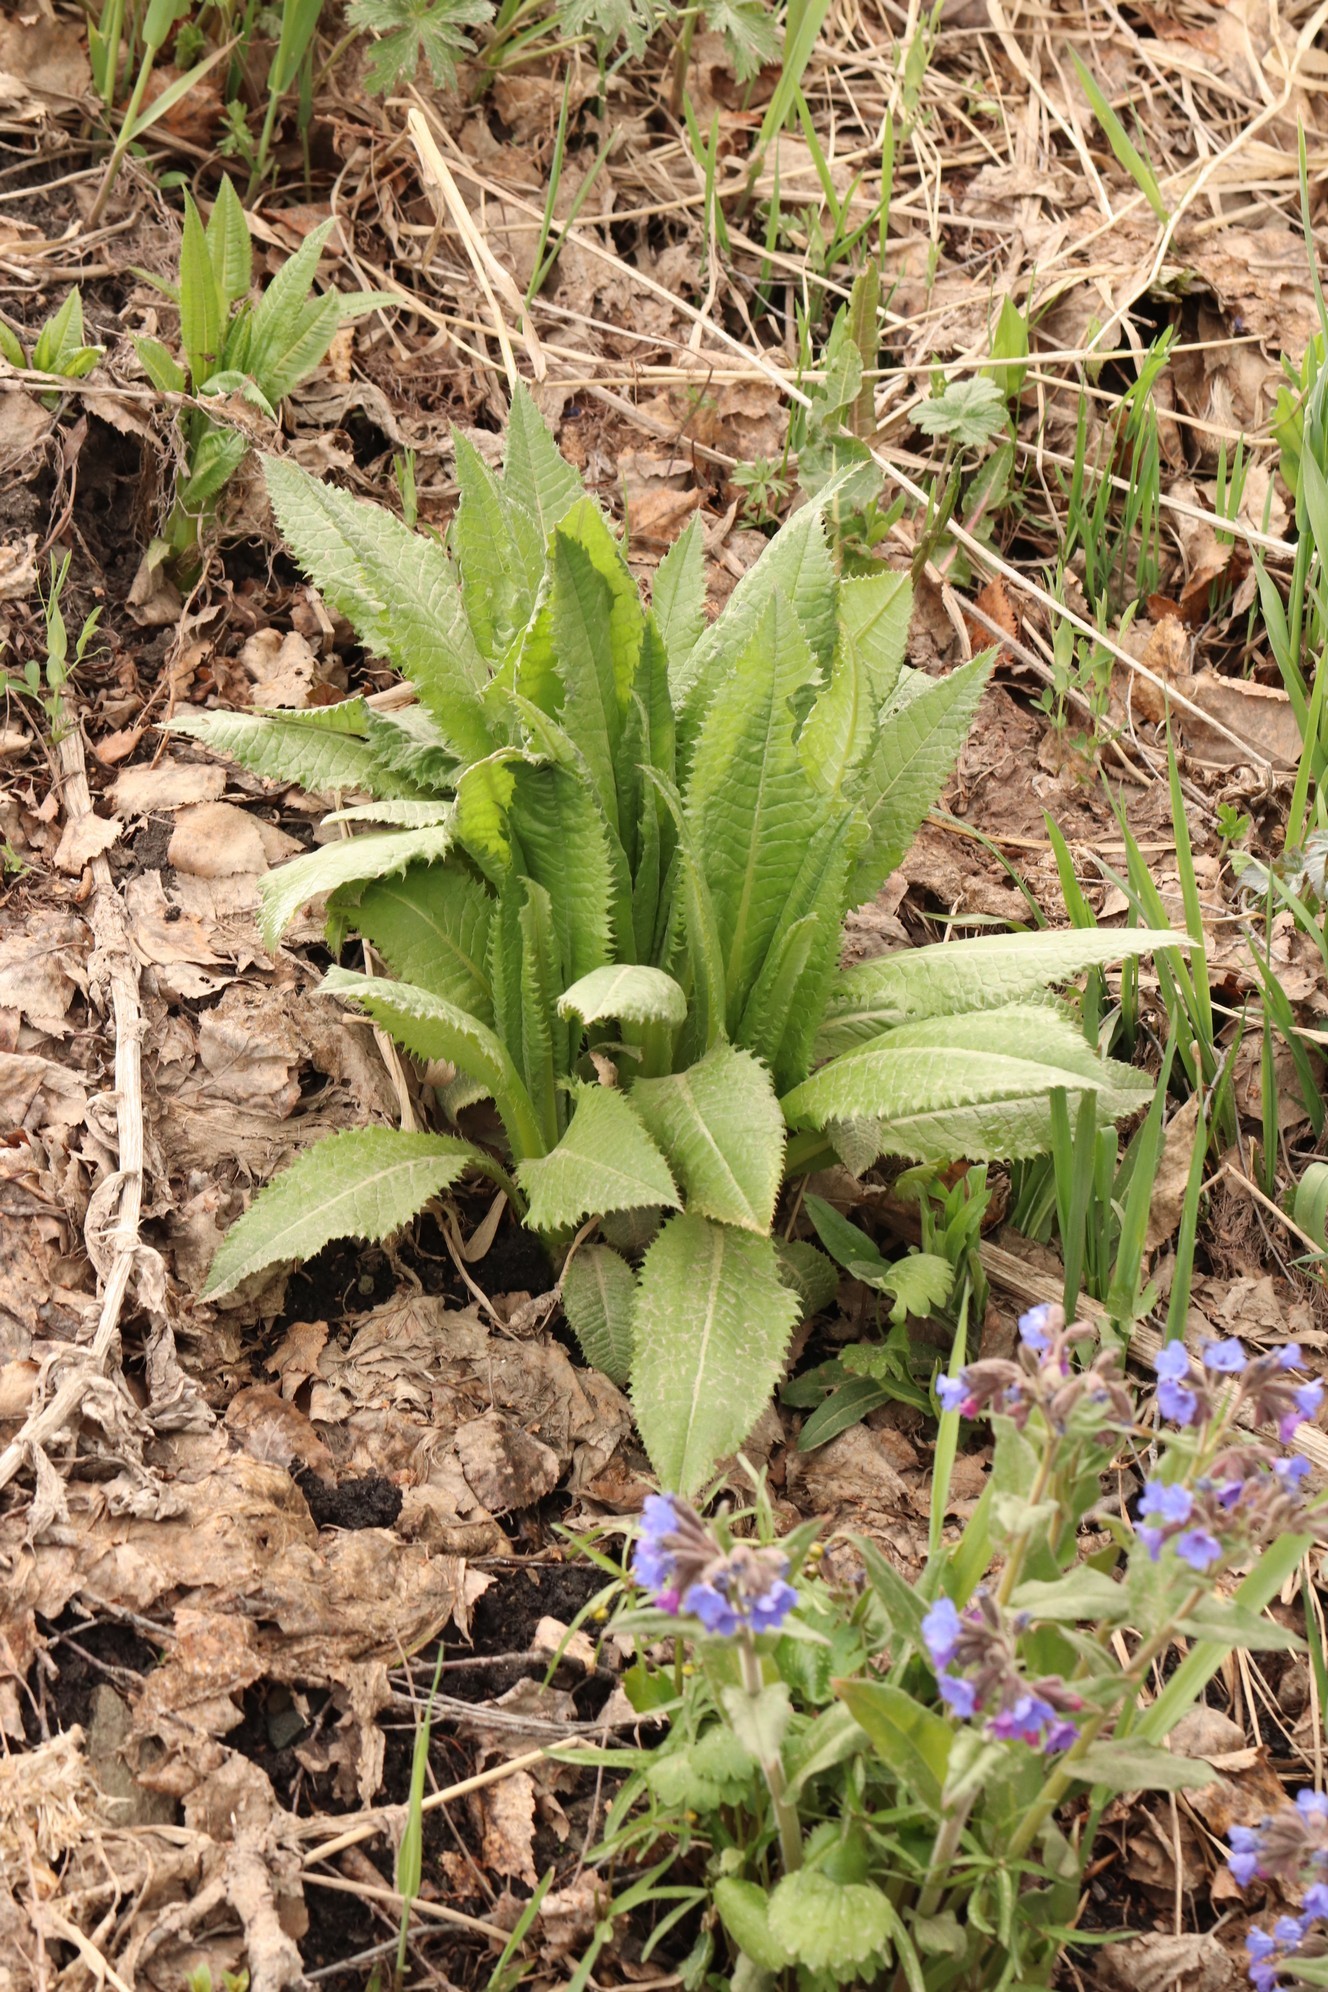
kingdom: Plantae
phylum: Tracheophyta
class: Magnoliopsida
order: Asterales
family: Asteraceae
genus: Alfredia
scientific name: Alfredia cernua
